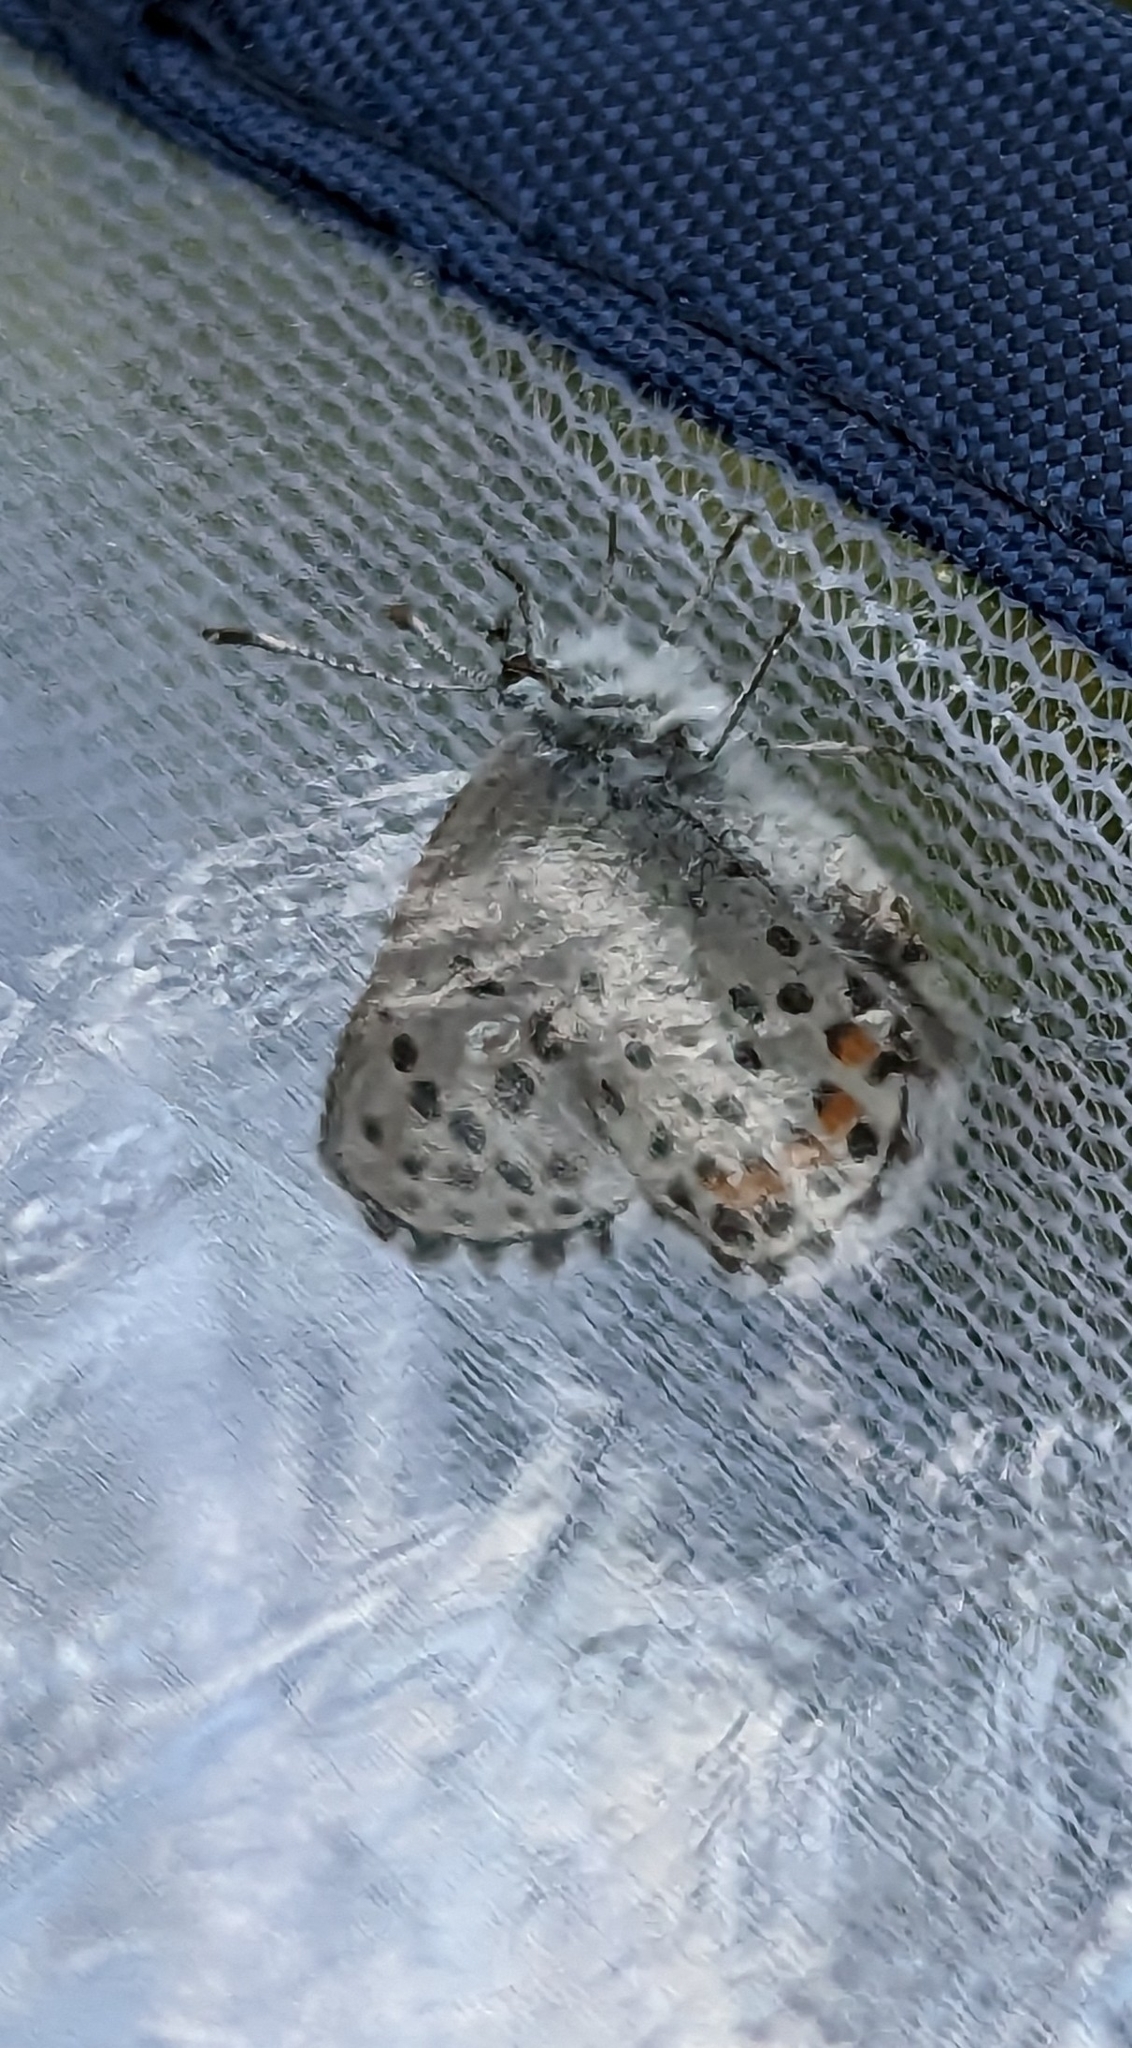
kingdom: Animalia
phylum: Arthropoda
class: Insecta
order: Lepidoptera
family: Lycaenidae
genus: Pseudophilotes
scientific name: Pseudophilotes baton
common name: Baton blue
